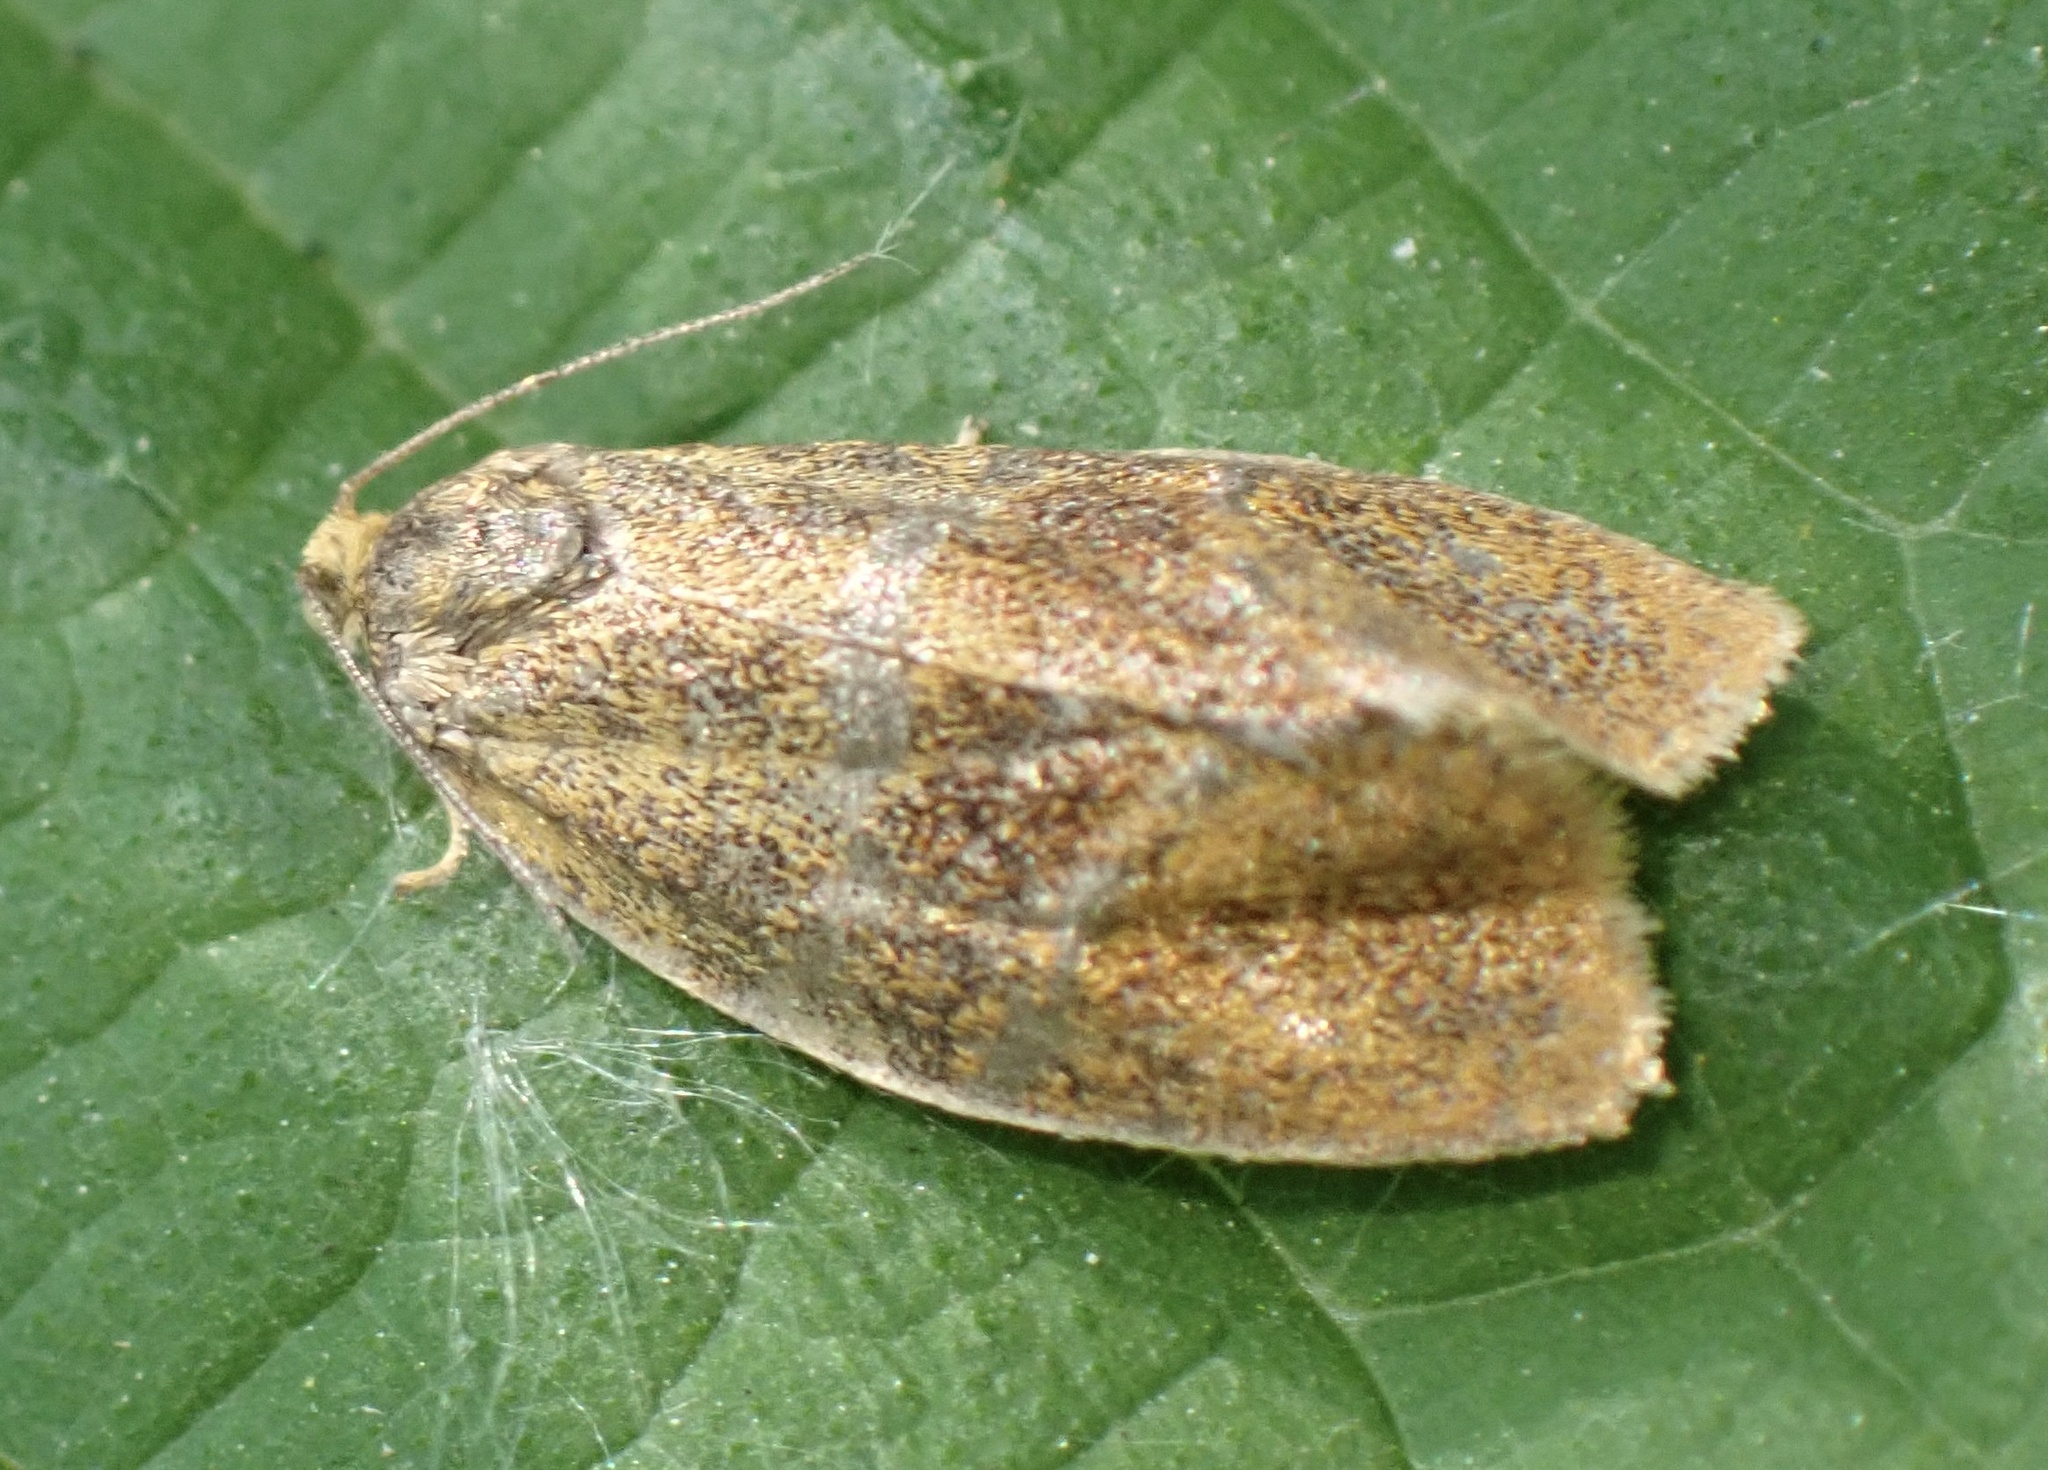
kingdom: Animalia
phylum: Arthropoda
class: Insecta
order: Lepidoptera
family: Tortricidae
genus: Ptycholoma
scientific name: Ptycholoma lecheana
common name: Leches twist moth
